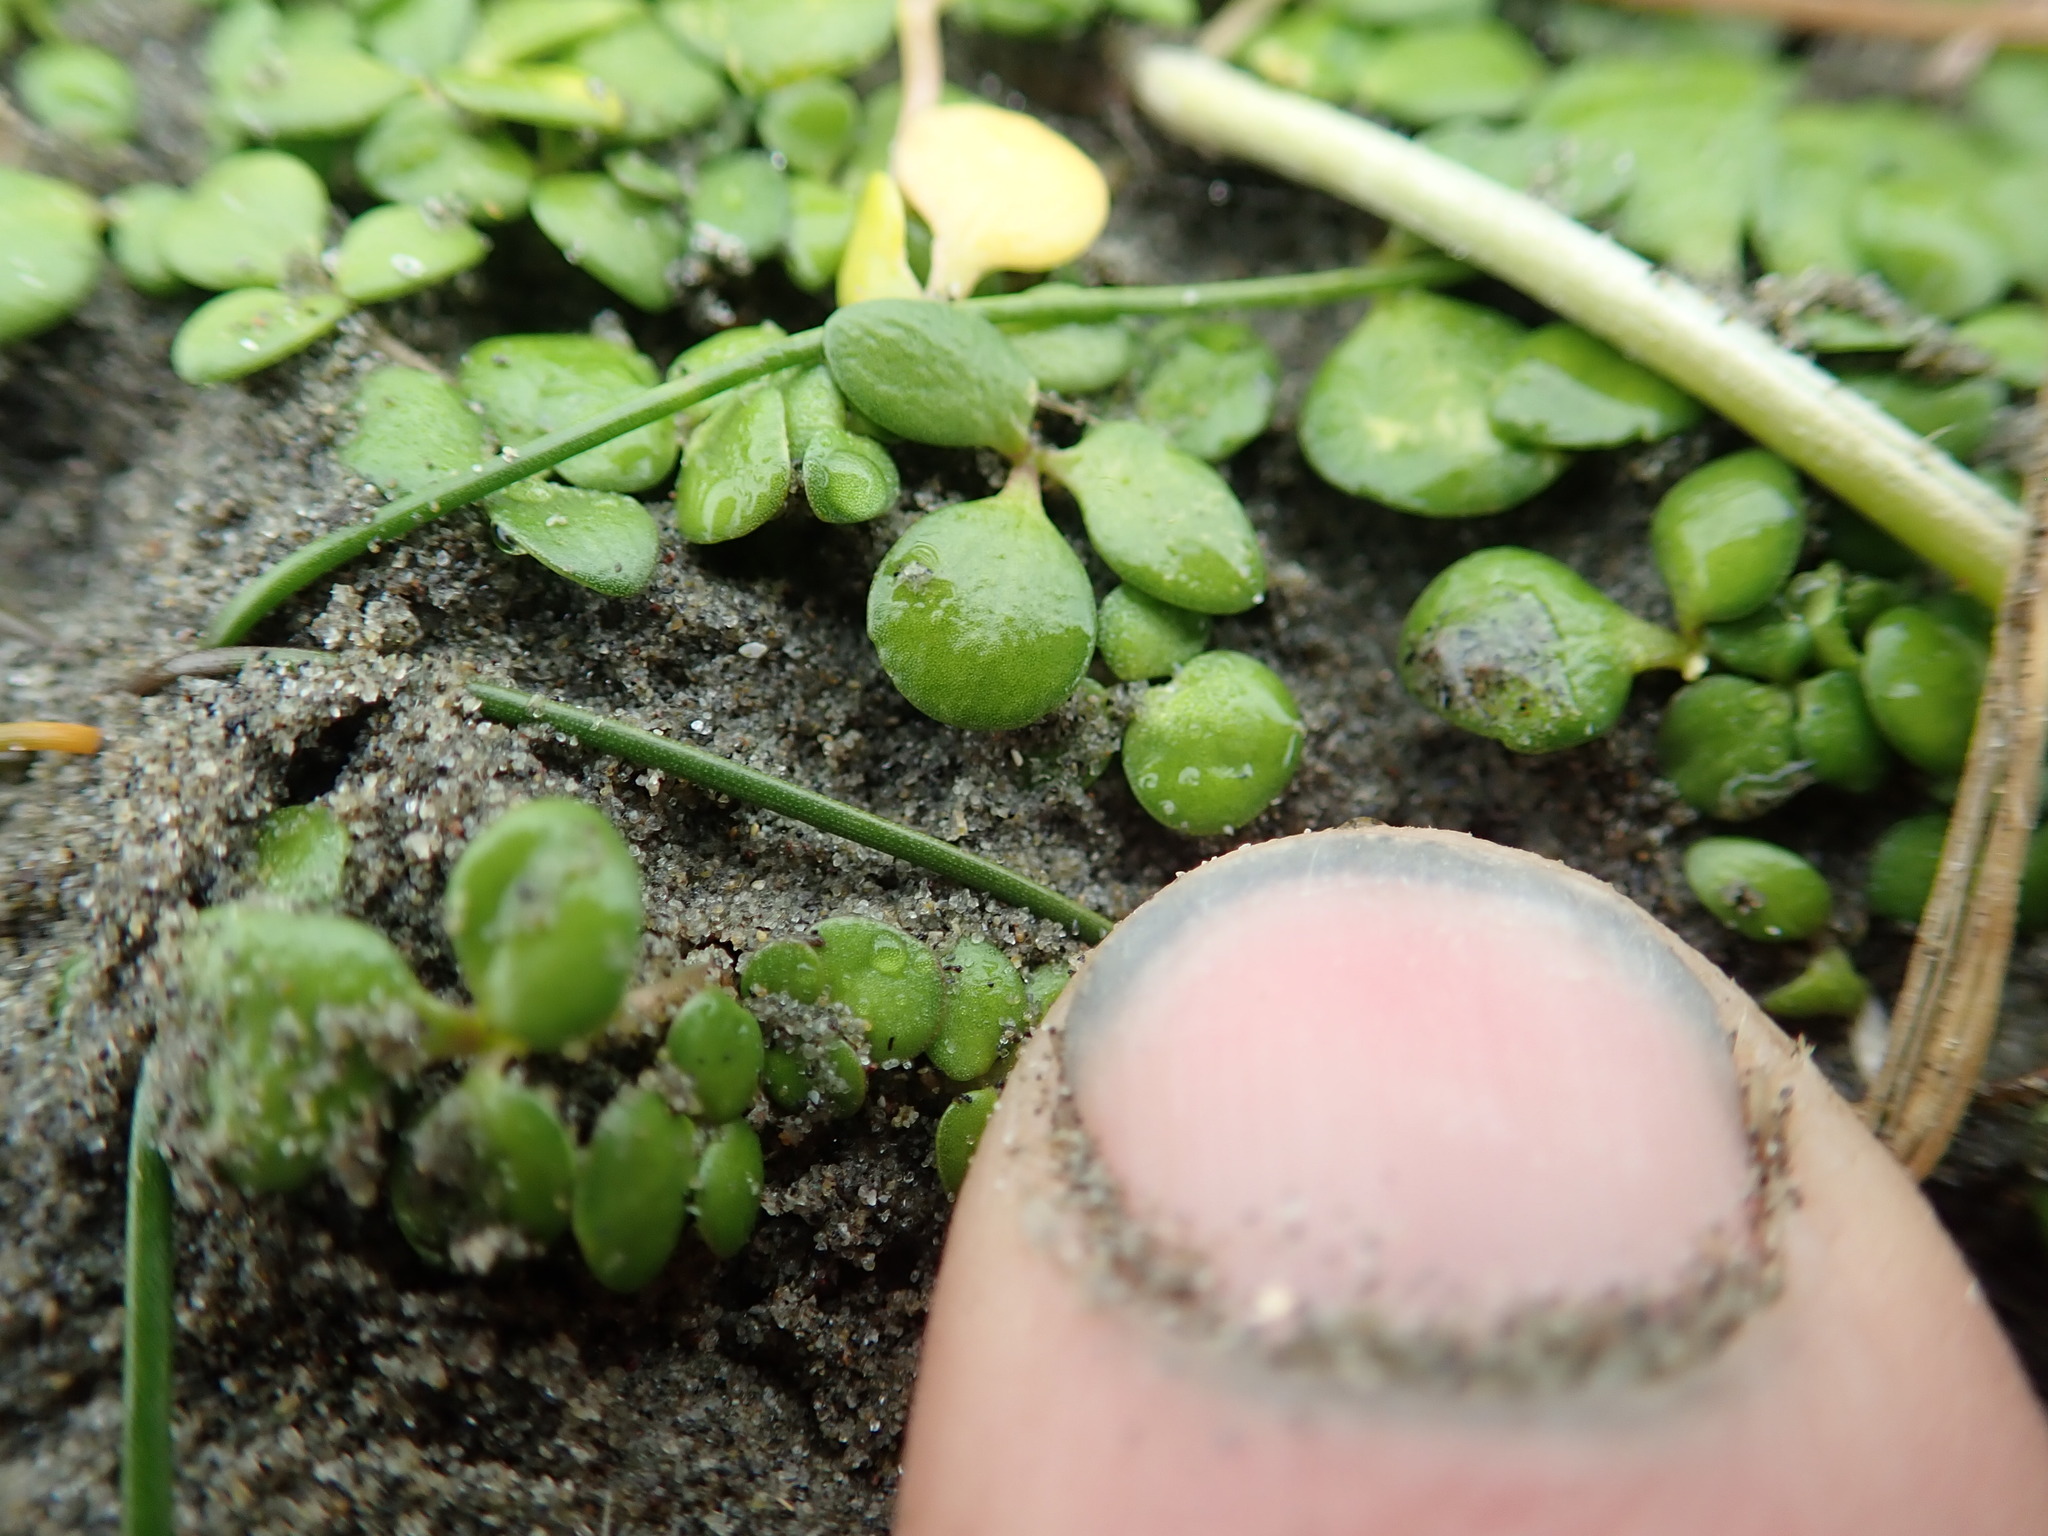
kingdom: Plantae
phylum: Tracheophyta
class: Magnoliopsida
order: Ranunculales
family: Ranunculaceae
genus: Ranunculus
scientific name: Ranunculus acaulis
